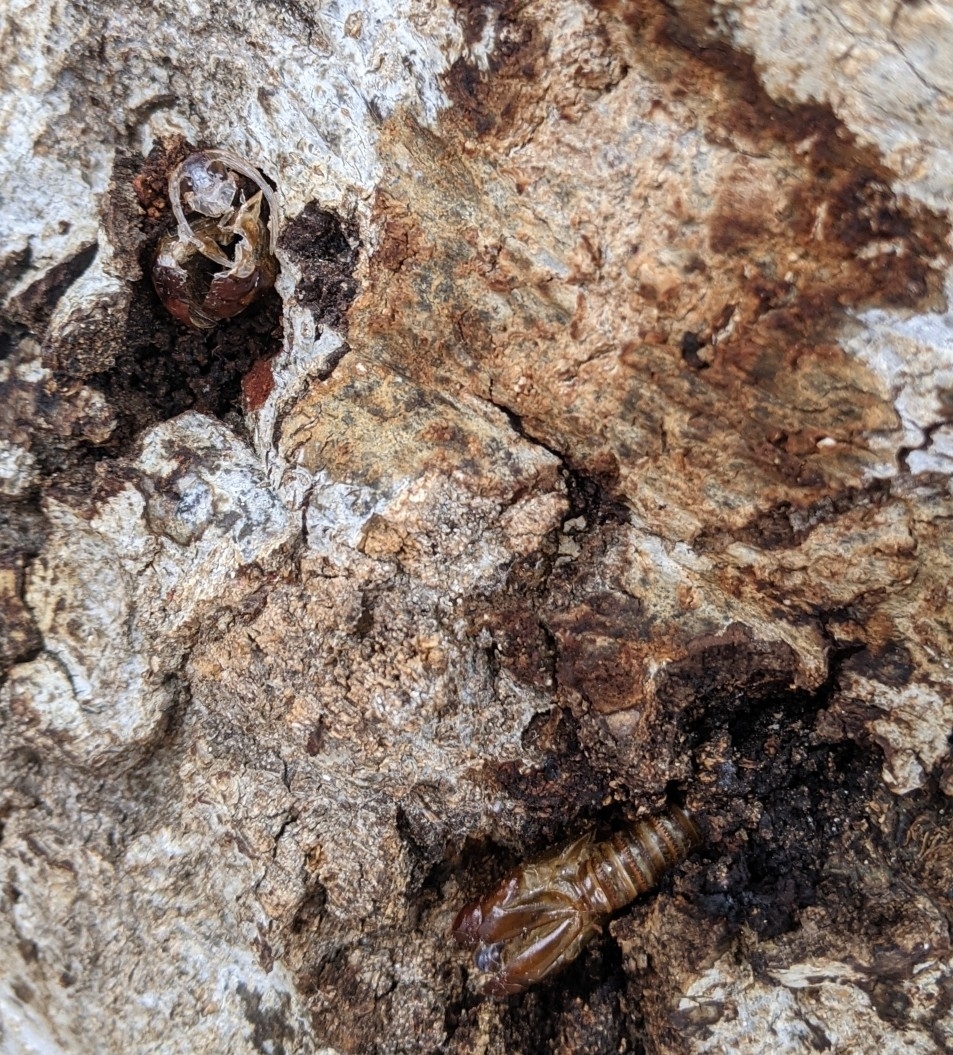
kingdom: Animalia
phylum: Arthropoda
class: Insecta
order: Lepidoptera
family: Cossidae
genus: Prionoxystus
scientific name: Prionoxystus robiniae
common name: Carpenterworm
